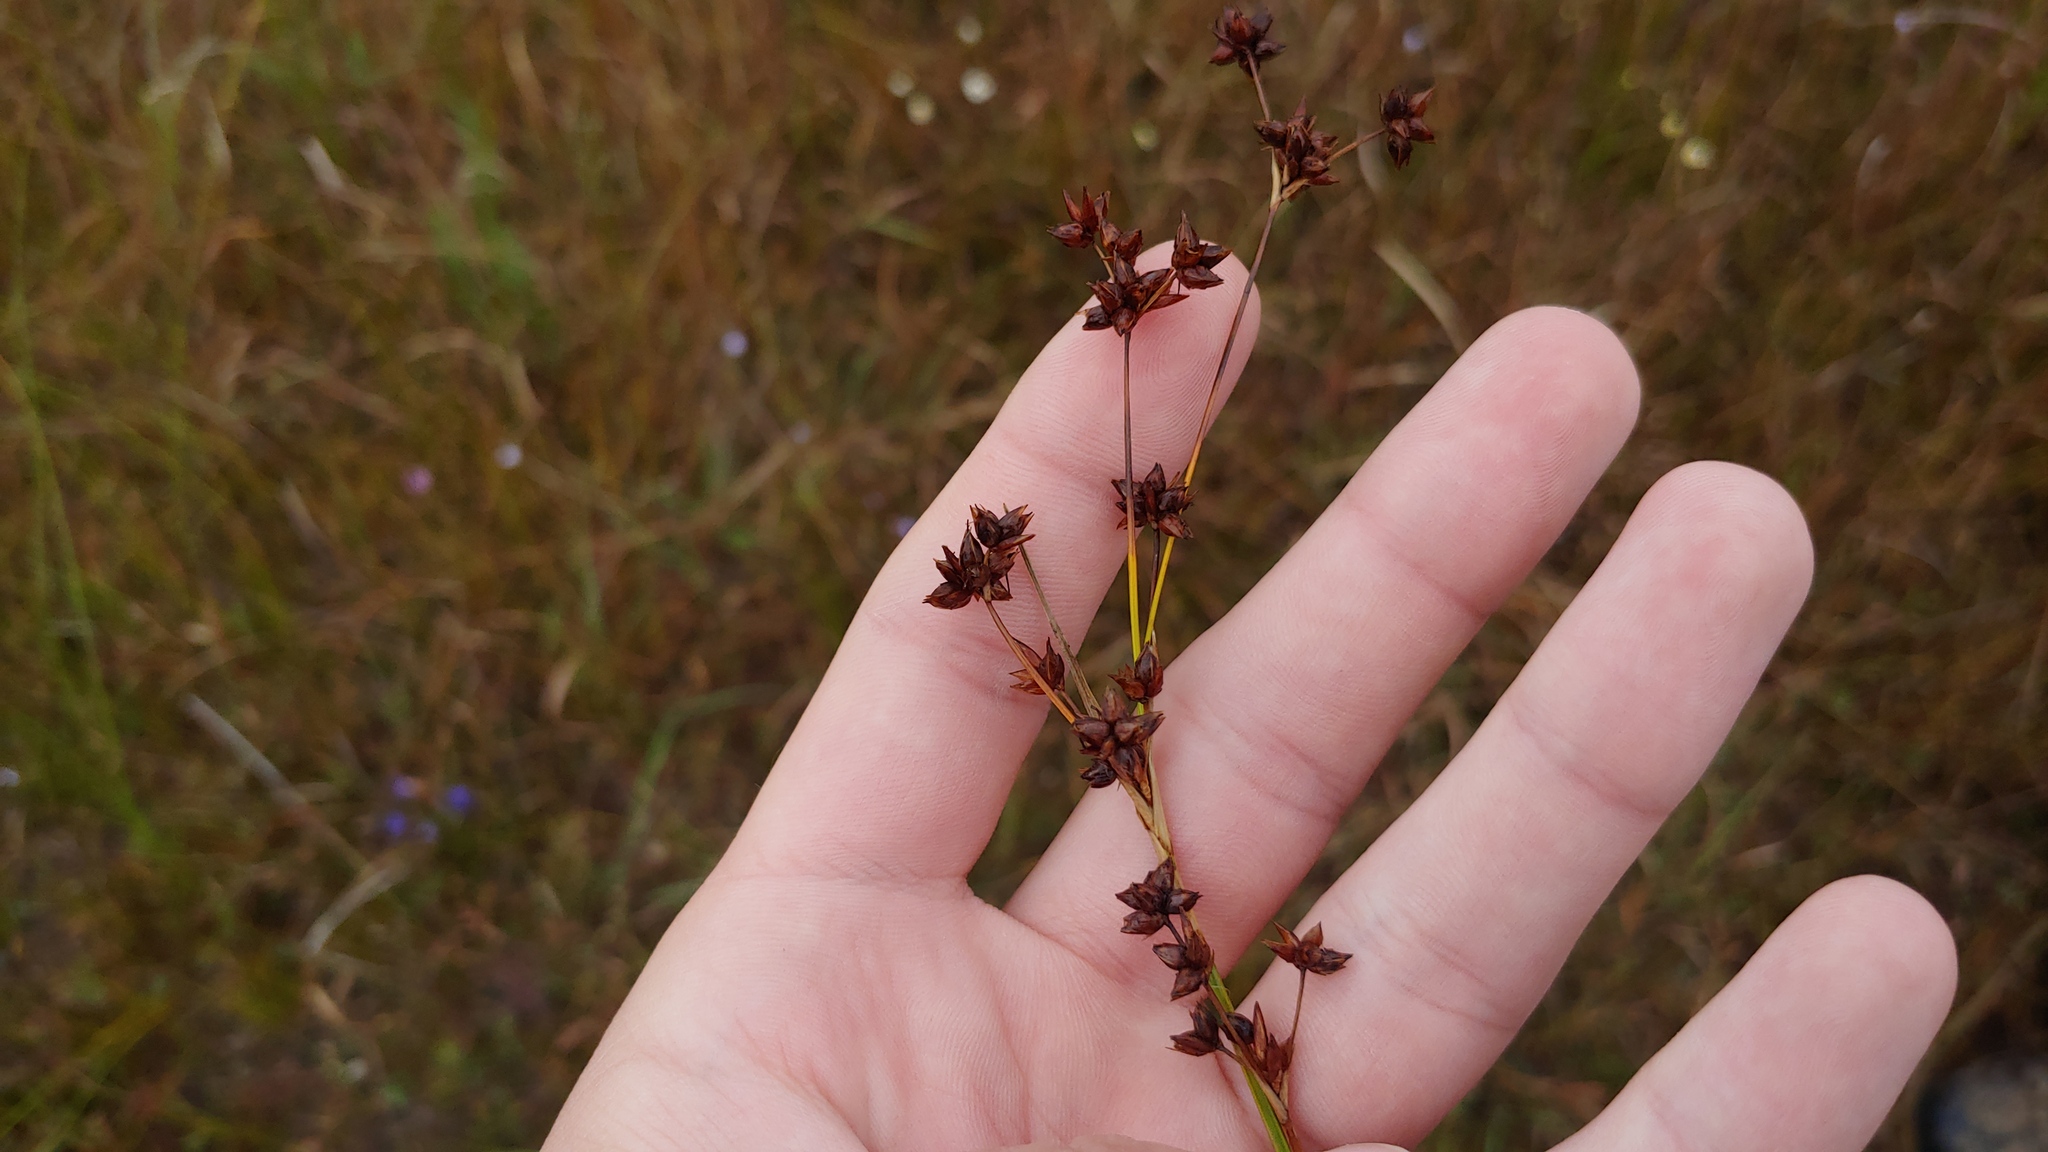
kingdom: Plantae
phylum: Tracheophyta
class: Liliopsida
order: Poales
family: Cyperaceae
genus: Cladium
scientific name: Cladium mariscoides
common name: Smooth sawgrass
